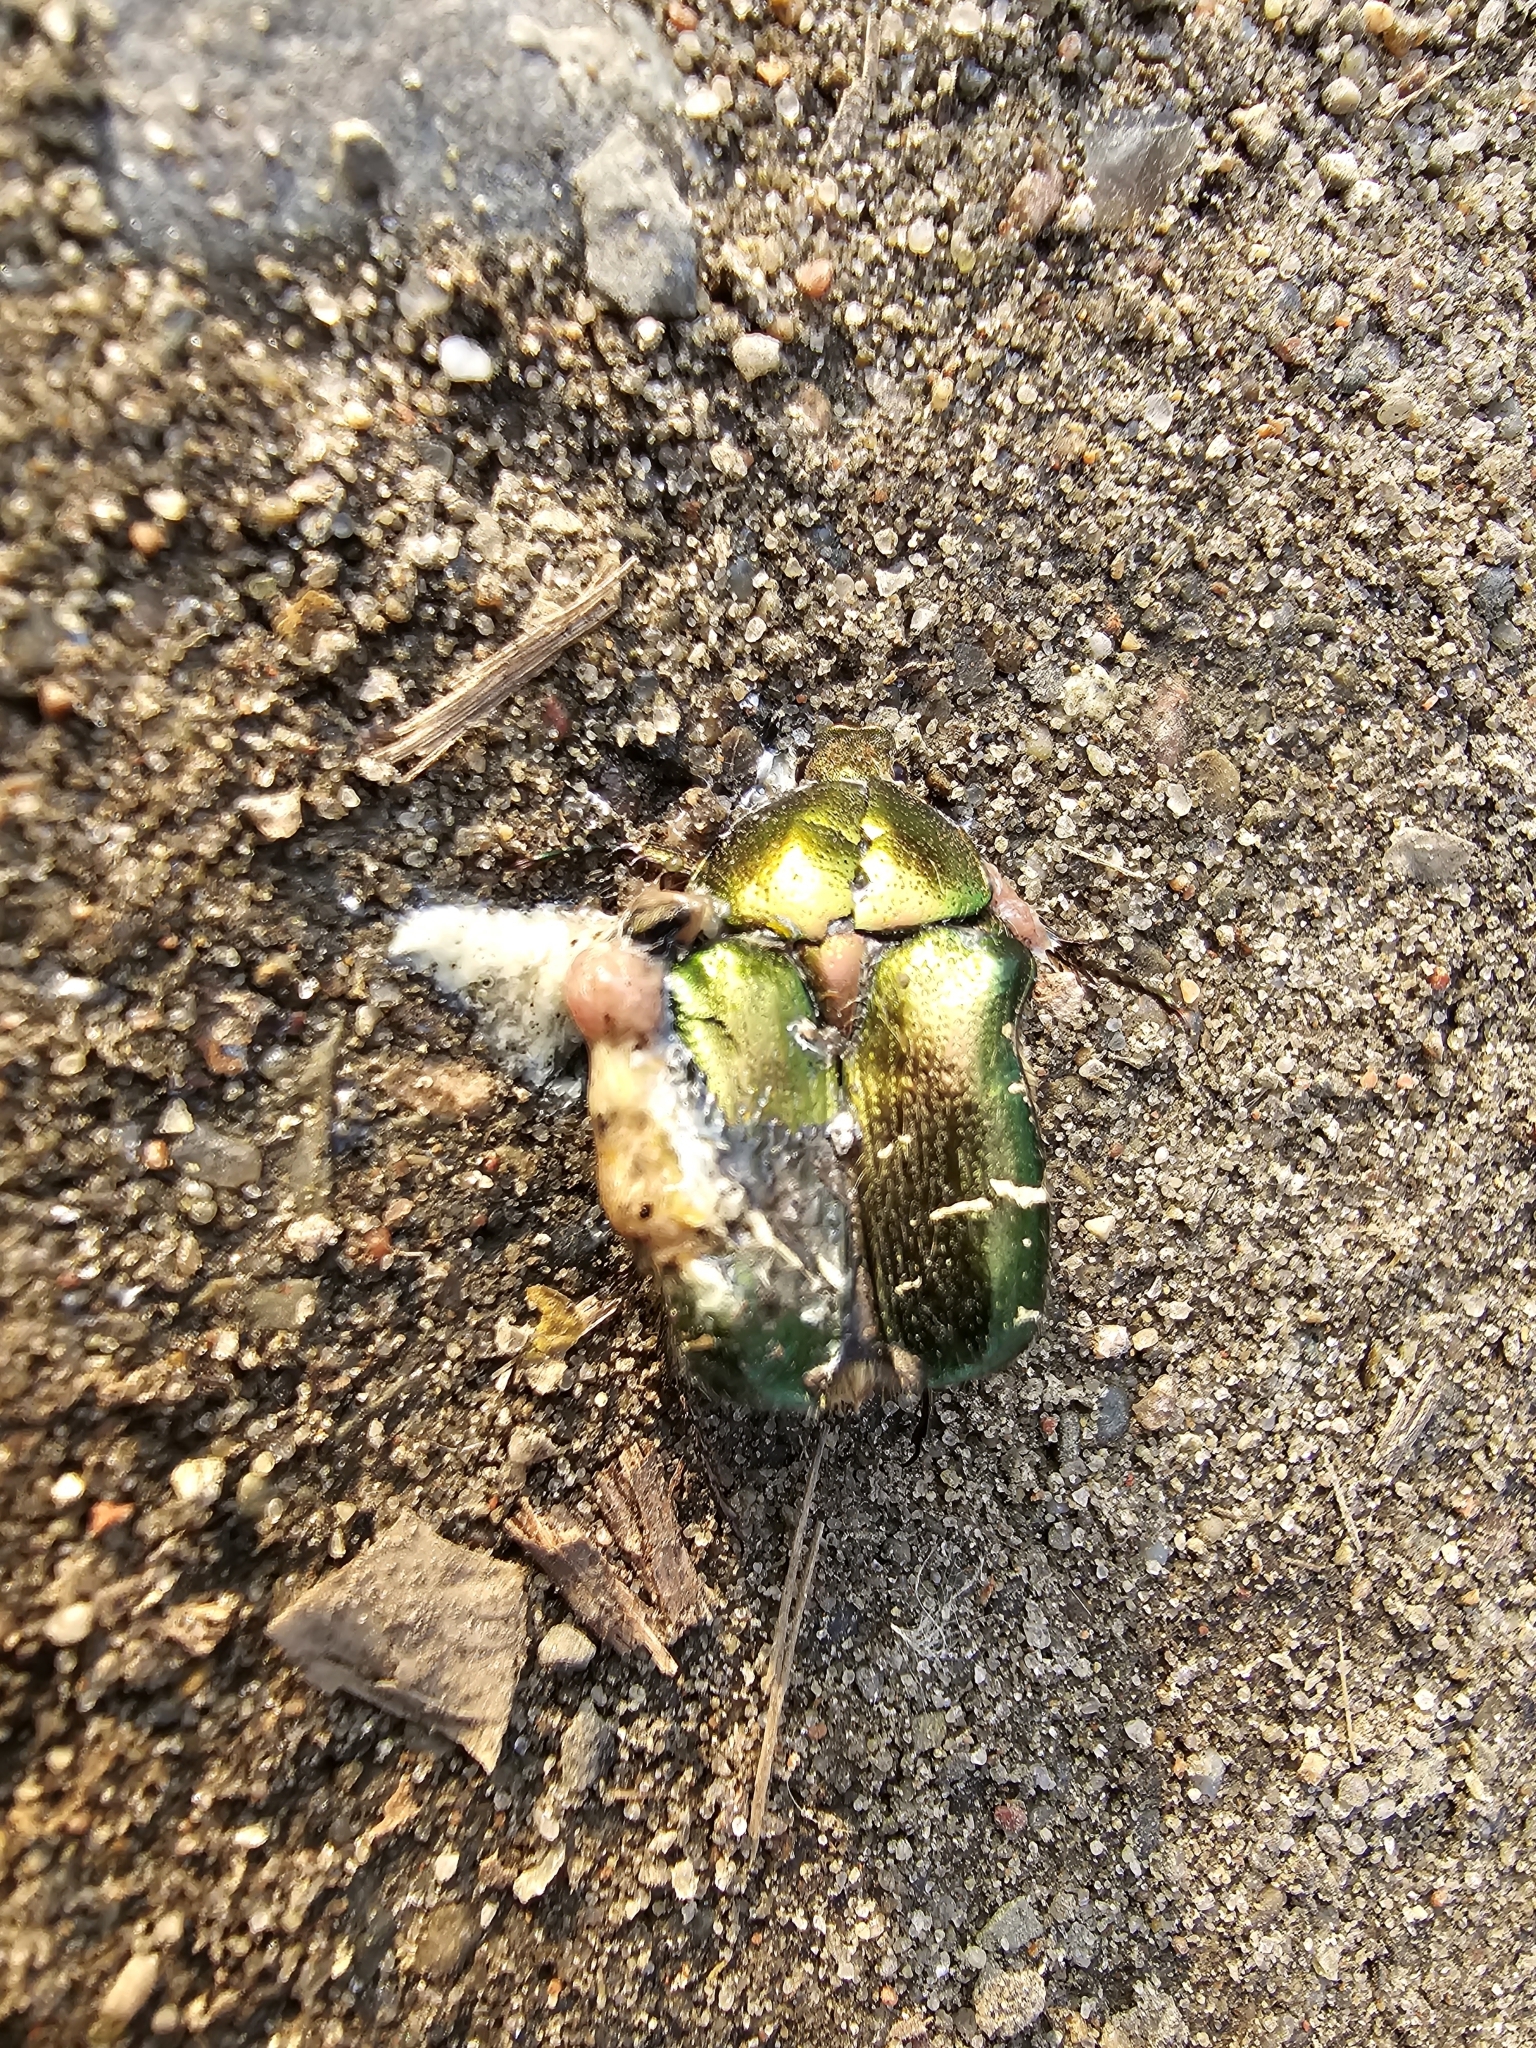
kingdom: Animalia
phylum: Arthropoda
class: Insecta
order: Coleoptera
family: Scarabaeidae
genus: Cetonia
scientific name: Cetonia aurata
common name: Rose chafer
